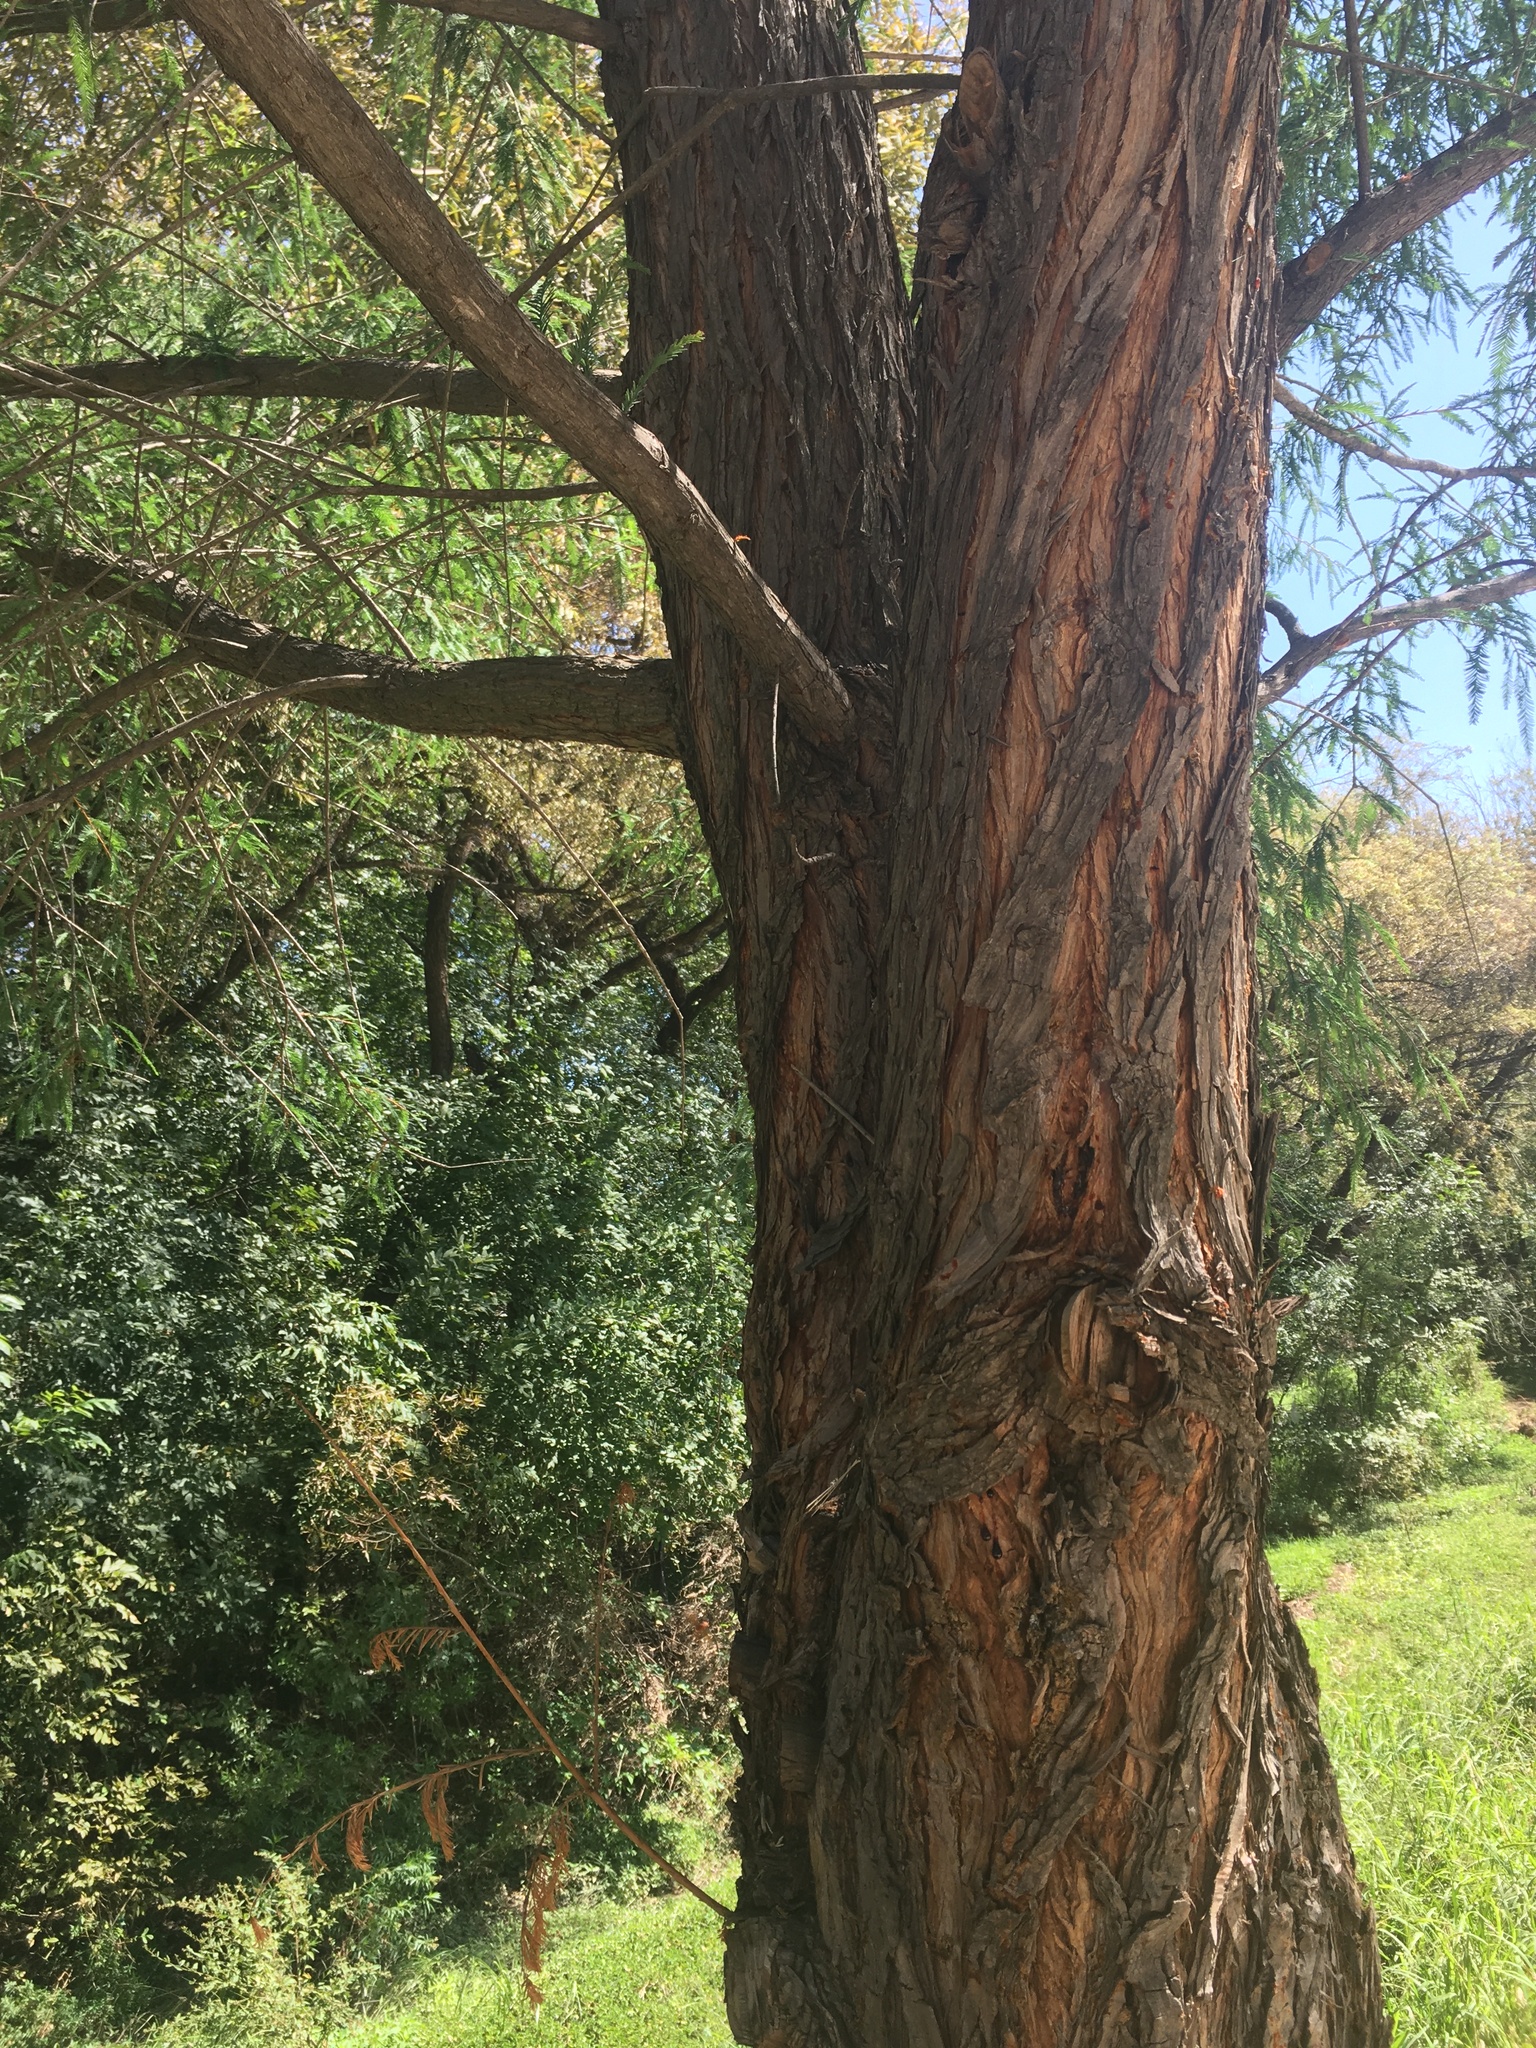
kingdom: Plantae
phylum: Tracheophyta
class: Pinopsida
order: Pinales
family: Cupressaceae
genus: Taxodium
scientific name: Taxodium mucronatum
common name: Montezume bald cypress
